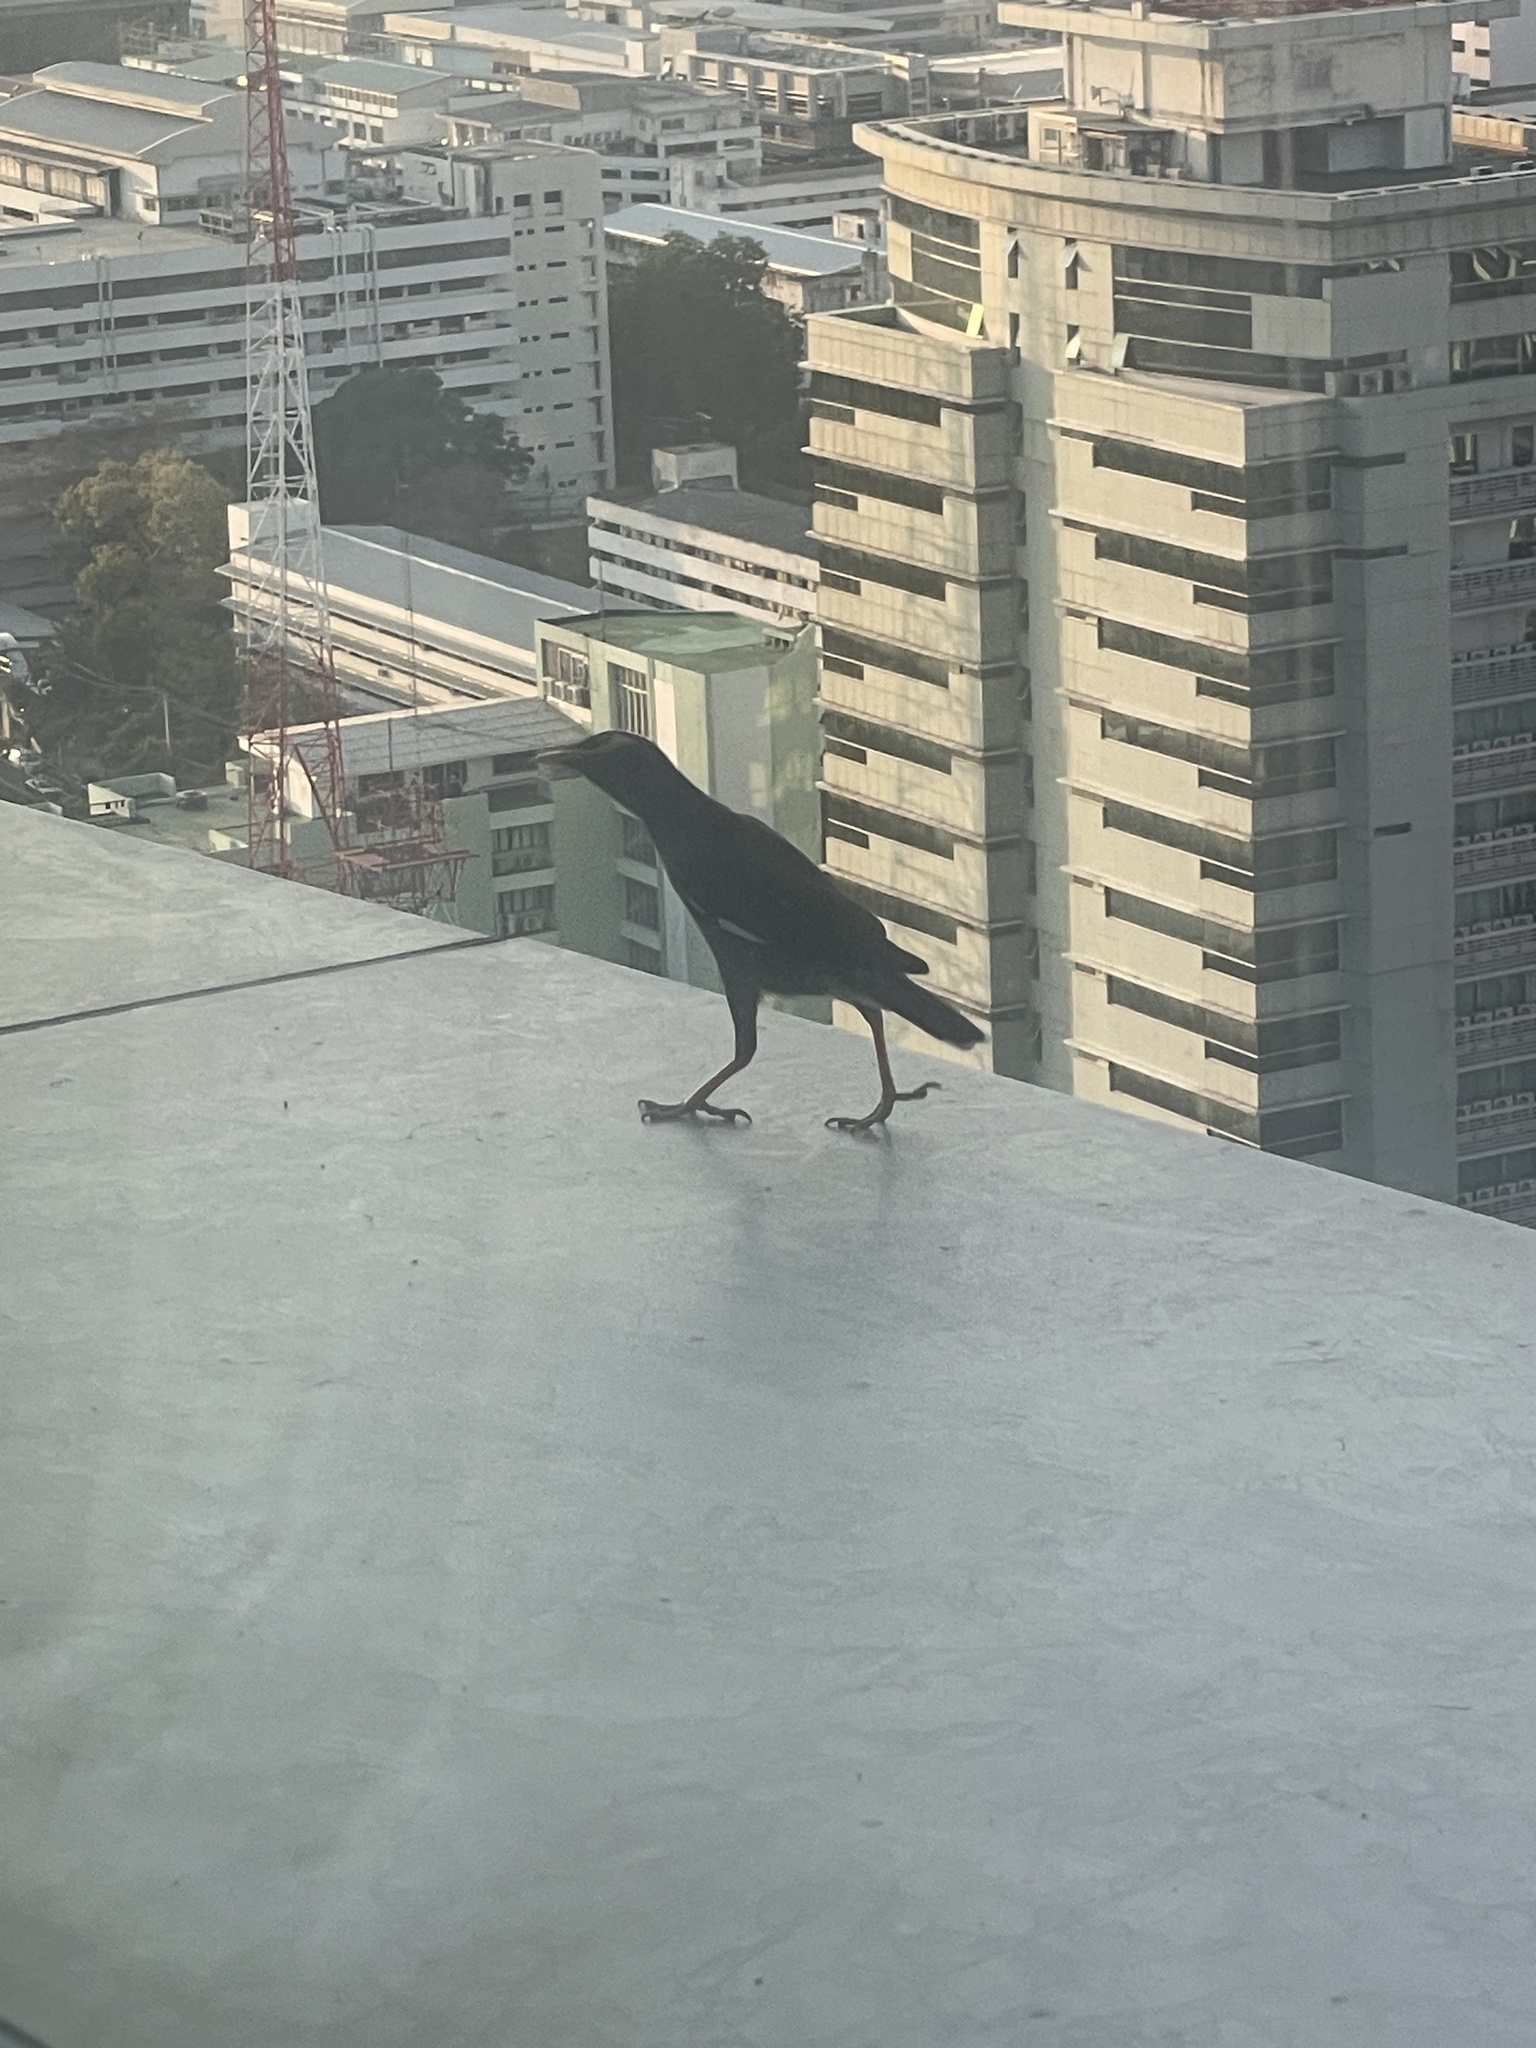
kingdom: Animalia
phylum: Chordata
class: Aves
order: Passeriformes
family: Sturnidae
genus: Acridotheres
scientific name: Acridotheres tristis
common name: Common myna
